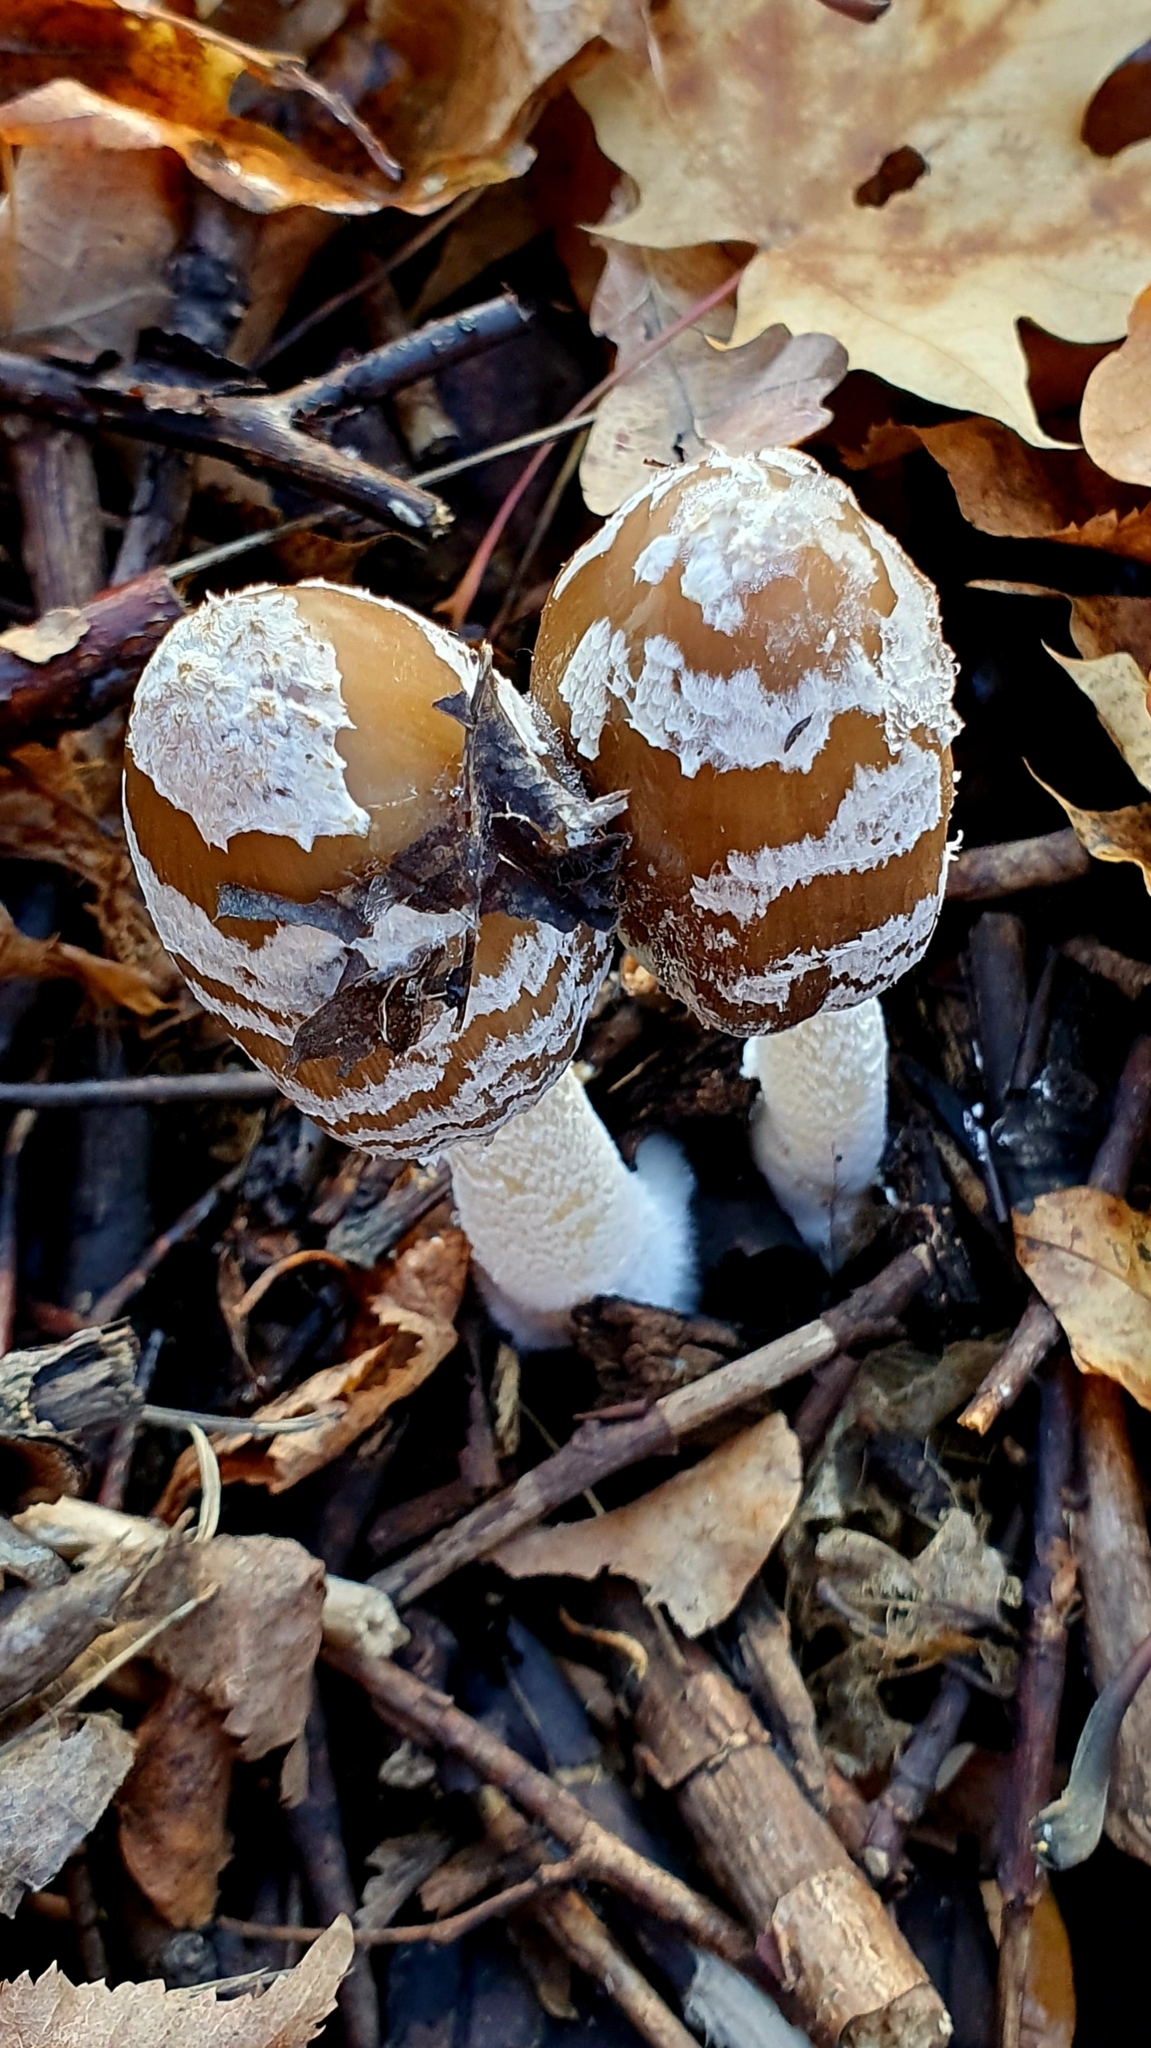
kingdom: Fungi
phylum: Basidiomycota
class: Agaricomycetes
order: Agaricales
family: Psathyrellaceae
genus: Coprinopsis
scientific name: Coprinopsis picacea
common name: Magpie inkcap
